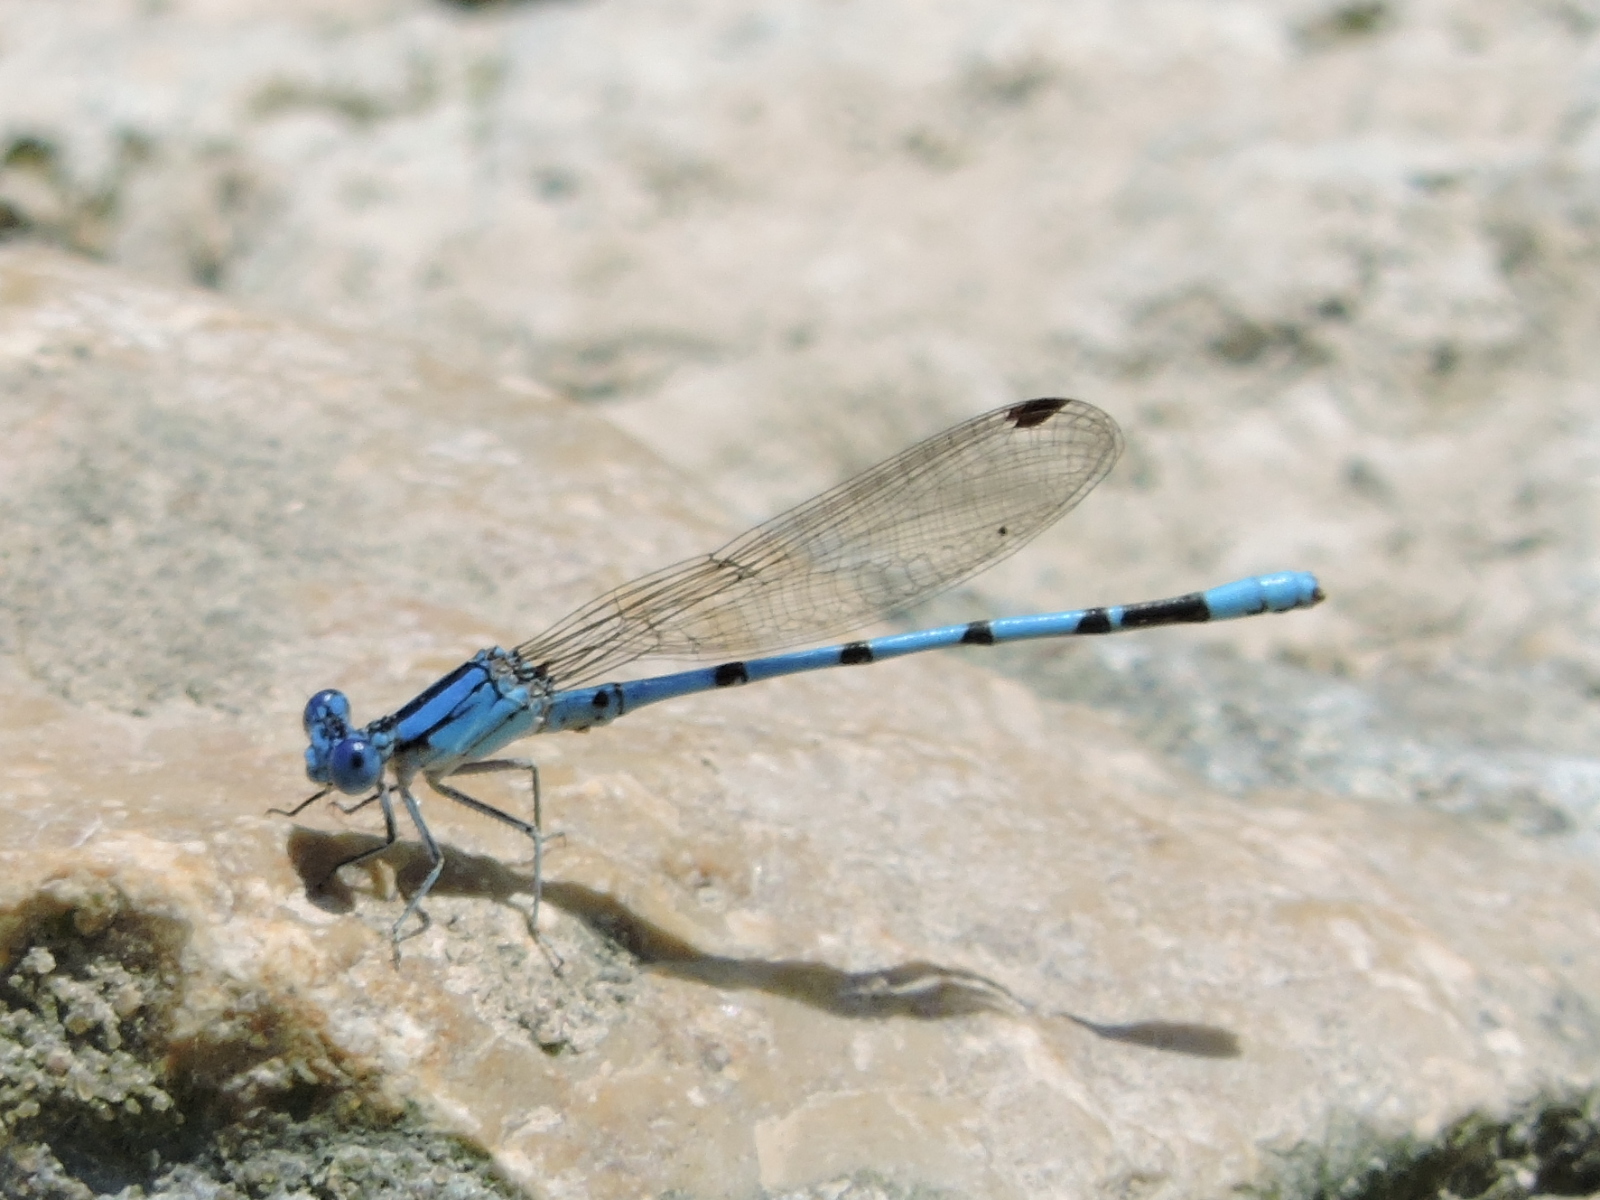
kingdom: Animalia
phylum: Arthropoda
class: Insecta
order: Odonata
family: Coenagrionidae
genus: Argia
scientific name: Argia nahuana
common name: Aztec dancer
